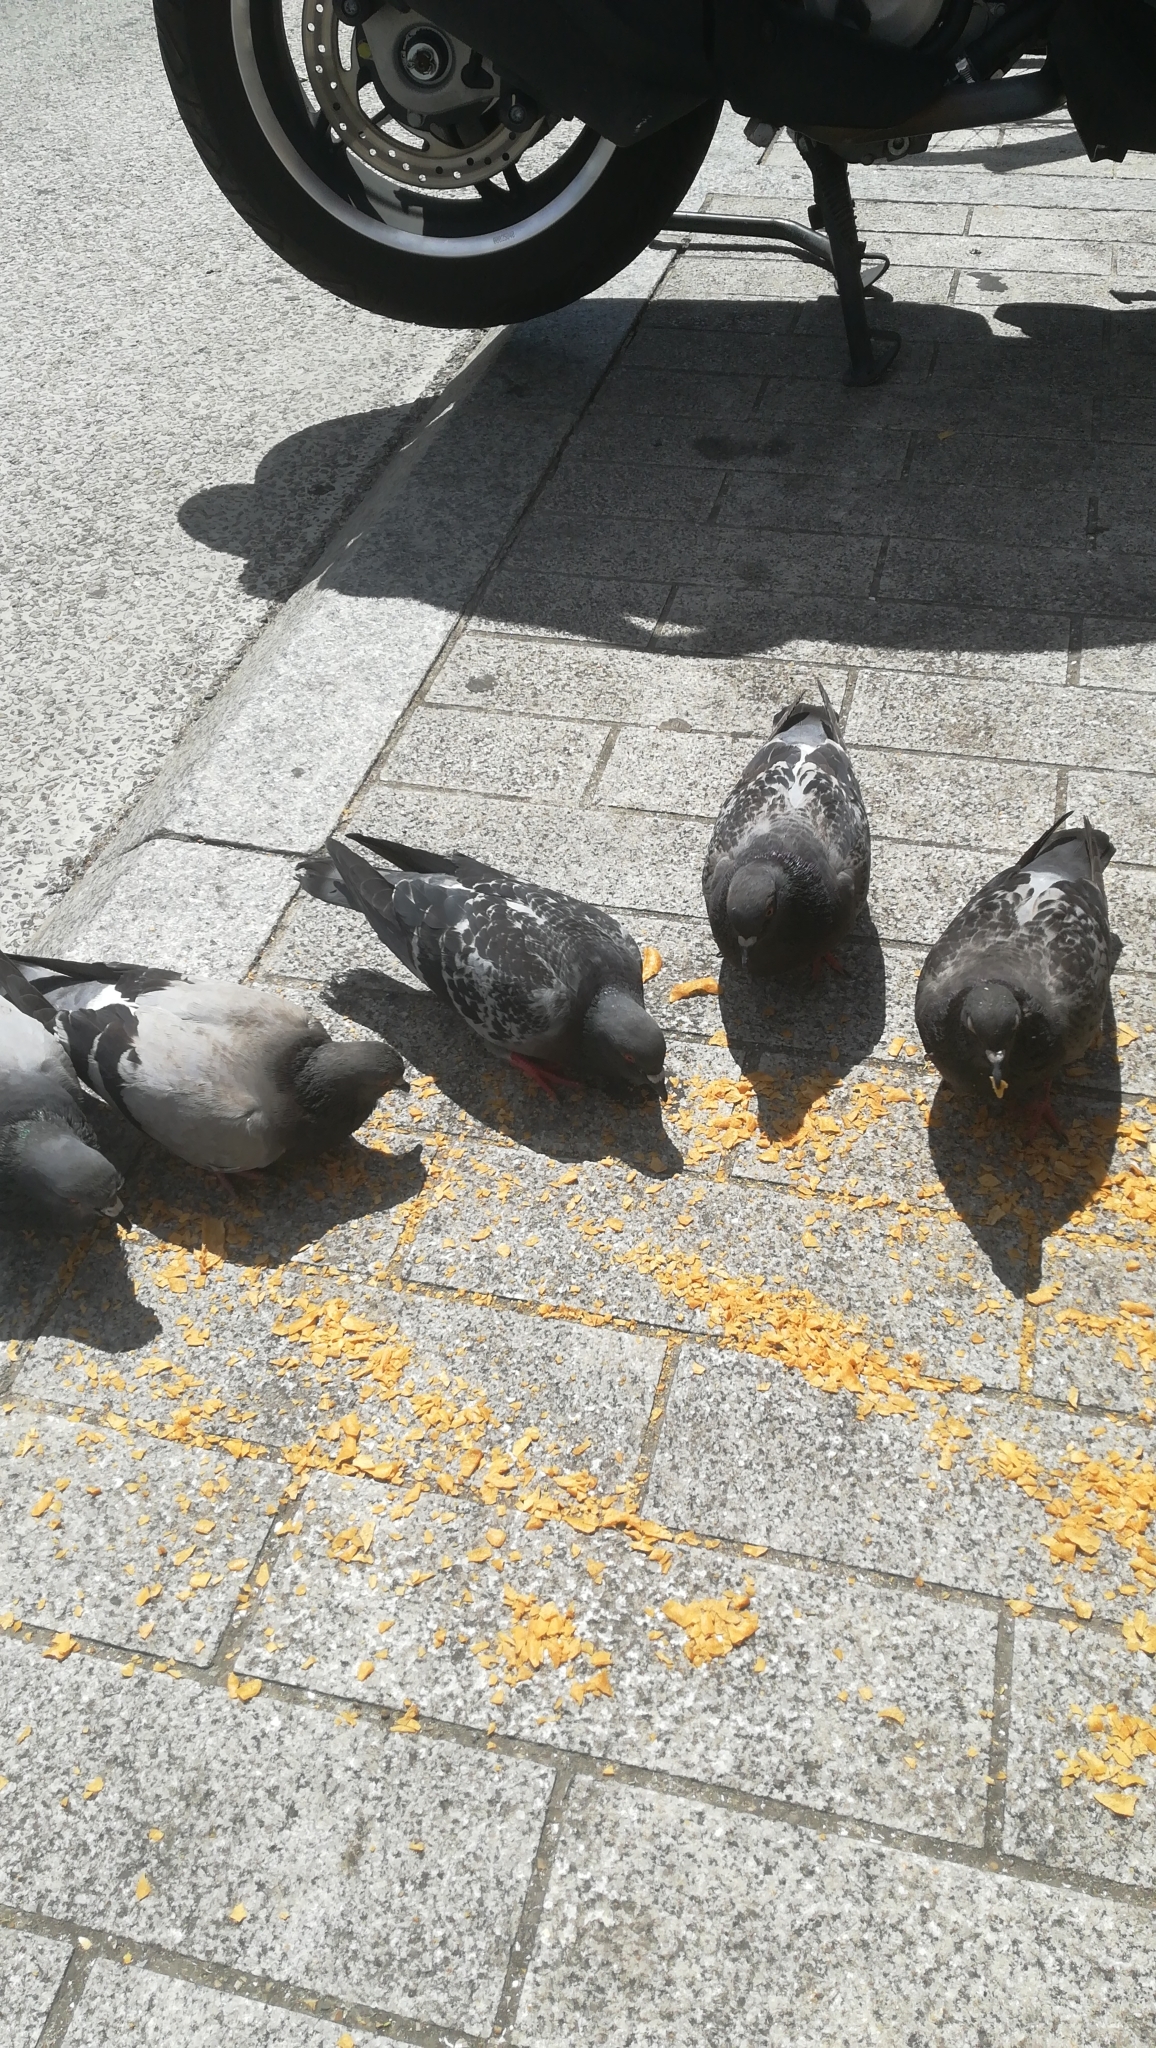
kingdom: Animalia
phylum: Chordata
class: Aves
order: Columbiformes
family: Columbidae
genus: Columba
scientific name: Columba livia
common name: Rock pigeon
